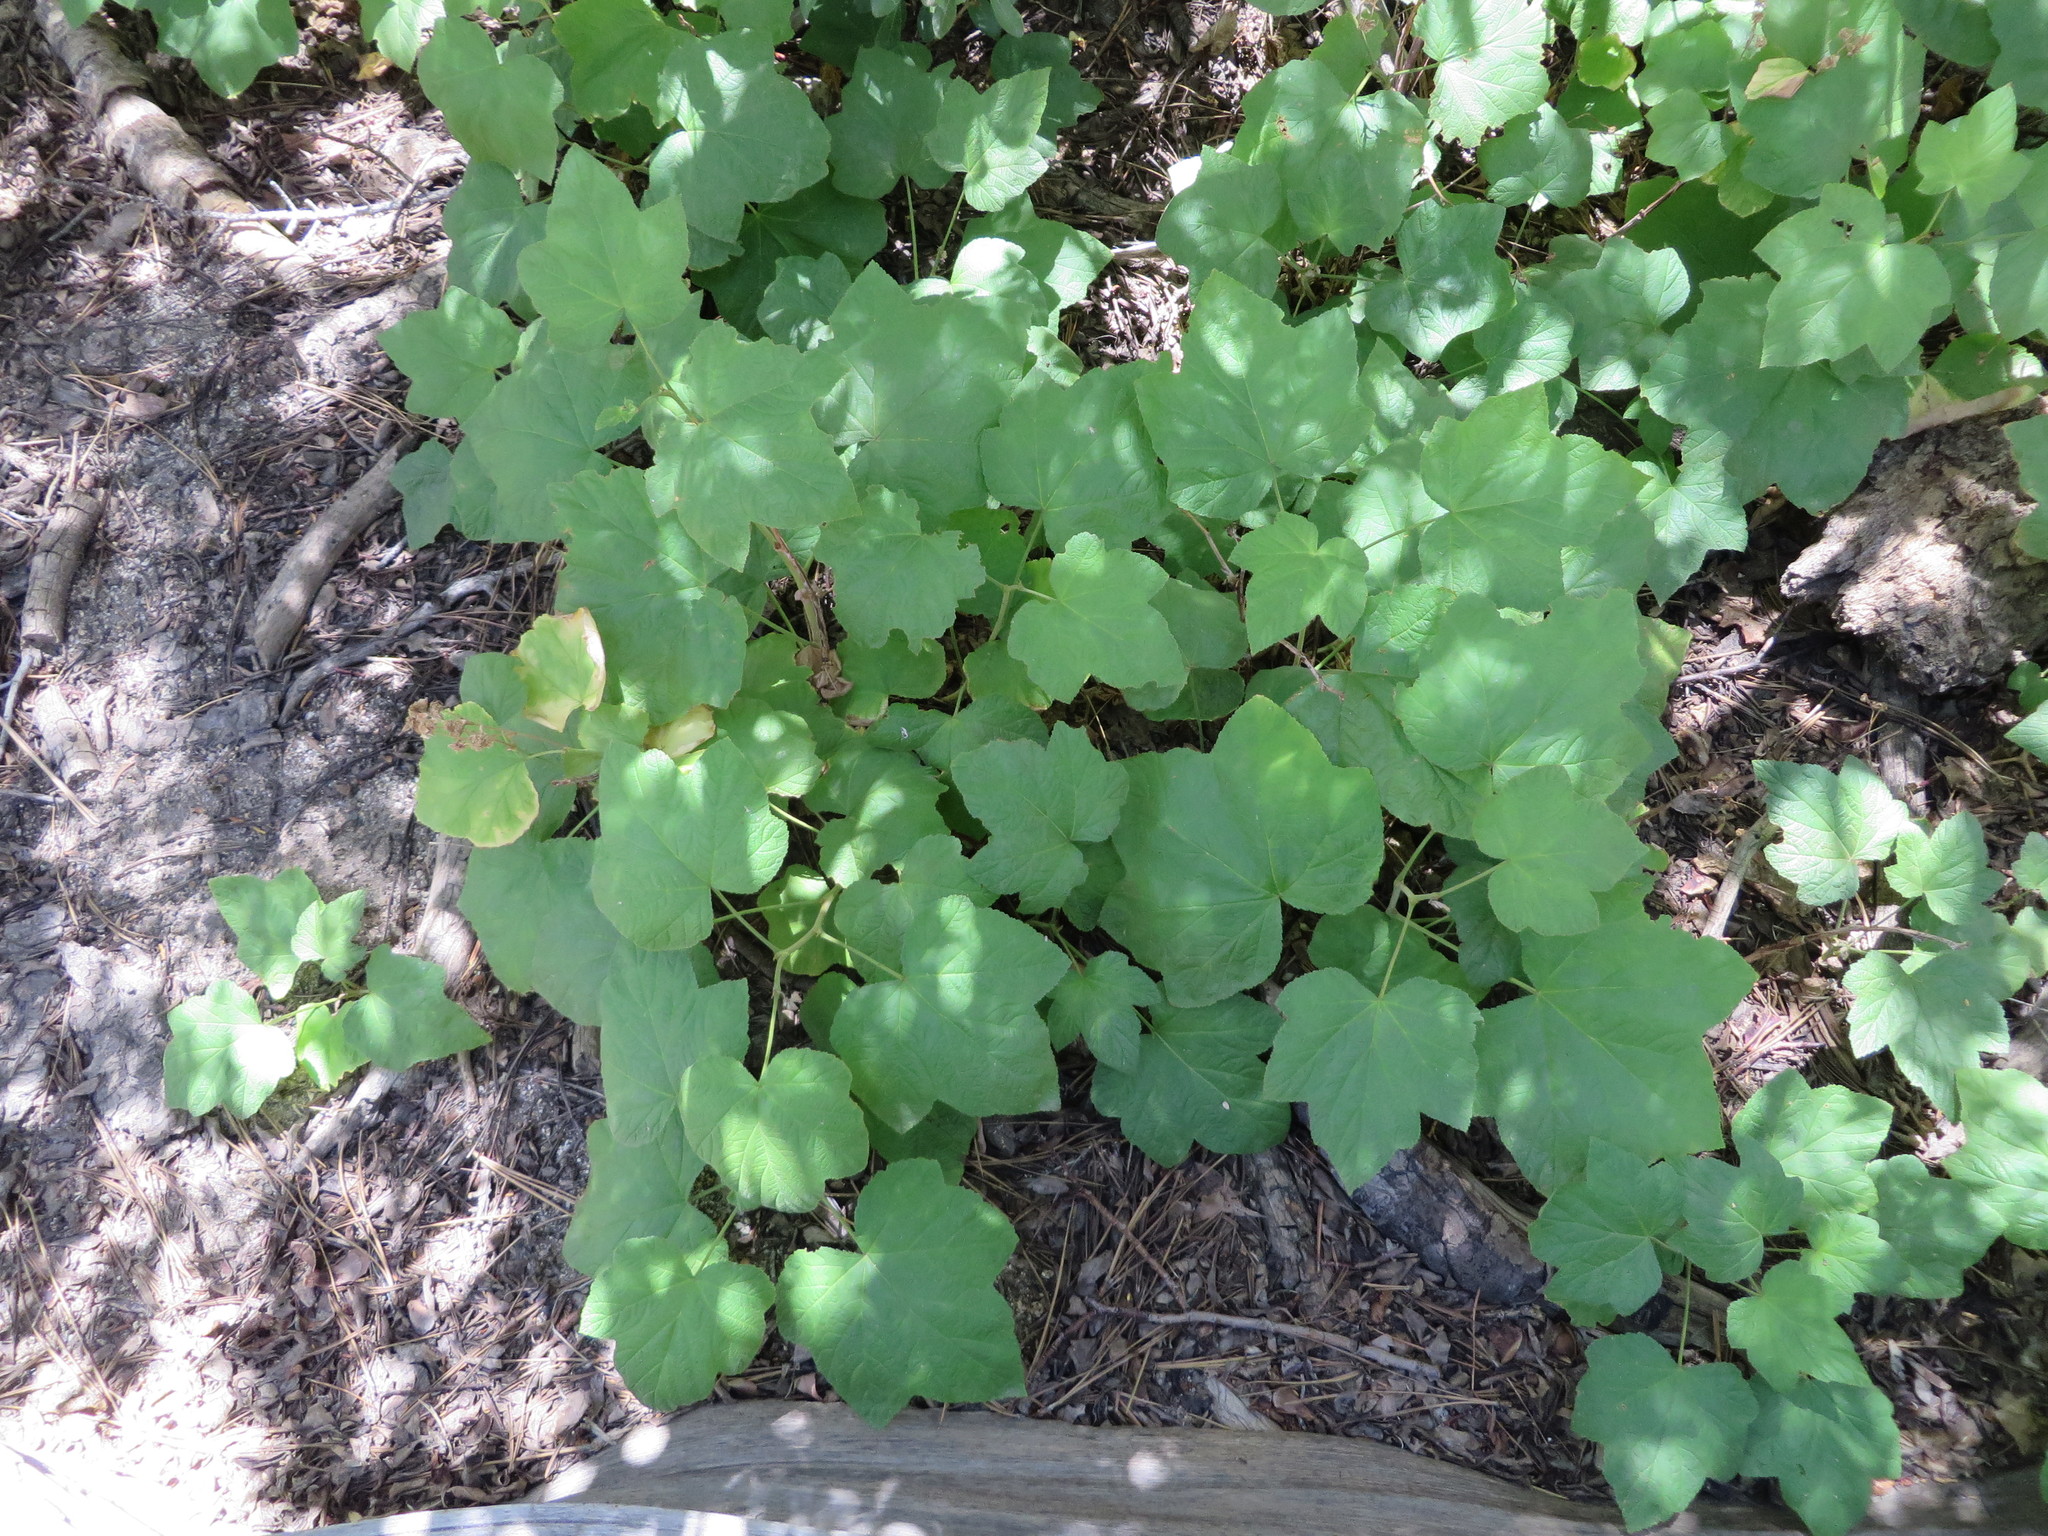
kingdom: Plantae
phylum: Tracheophyta
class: Magnoliopsida
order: Rosales
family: Rosaceae
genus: Rubus
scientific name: Rubus parviflorus
